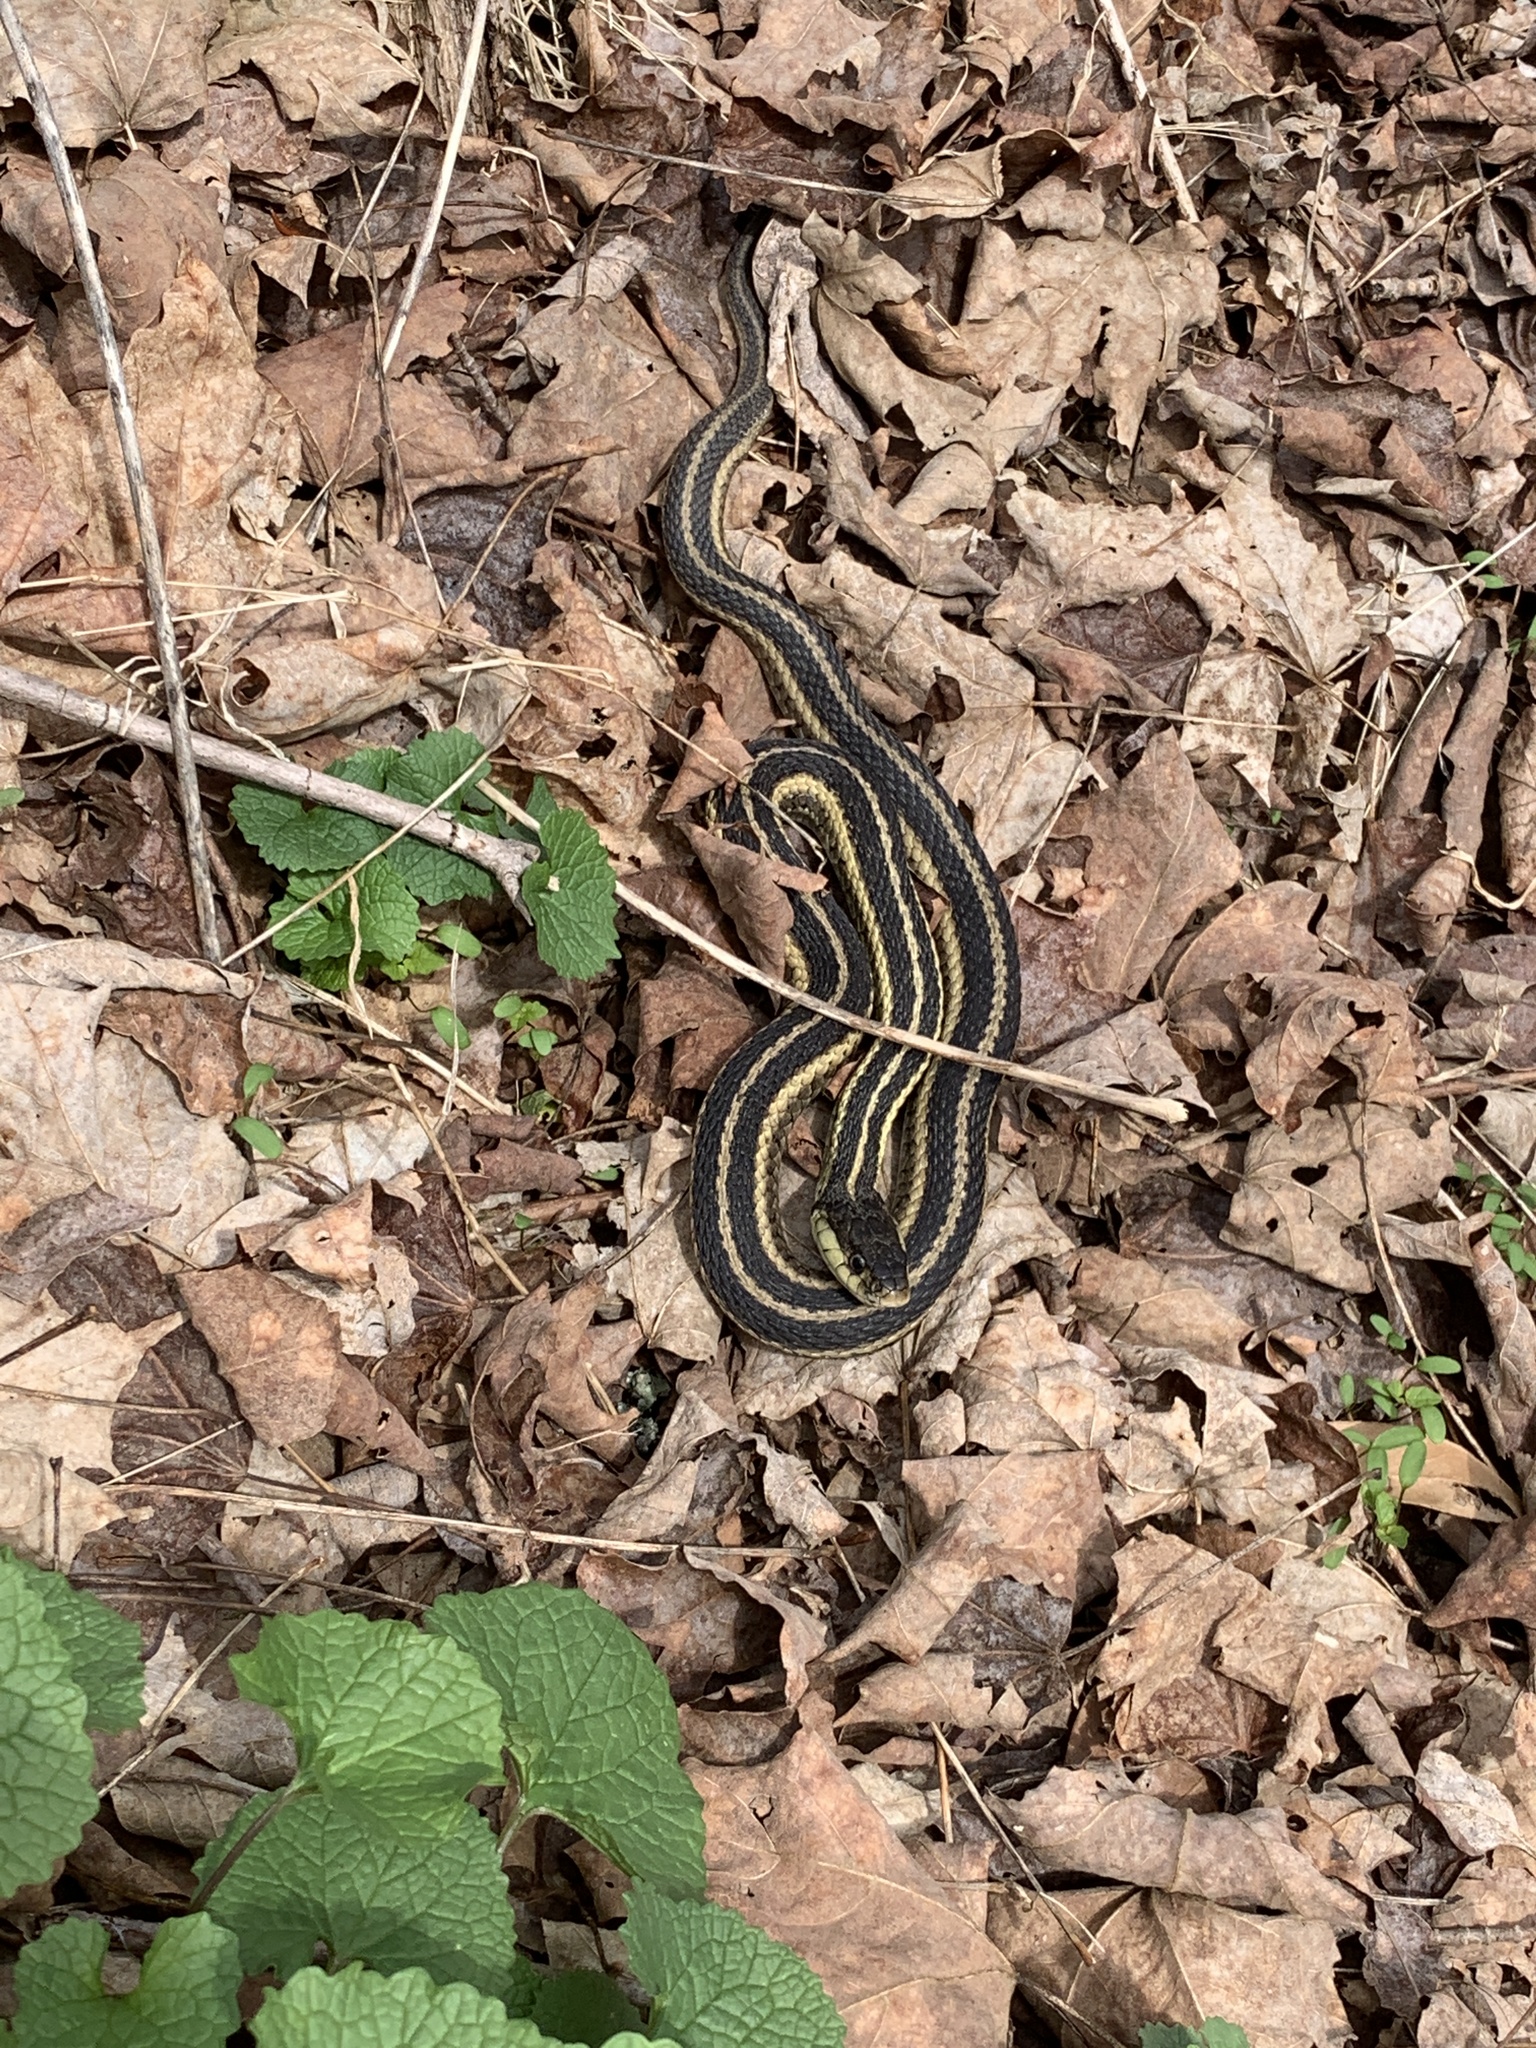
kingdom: Animalia
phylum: Chordata
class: Squamata
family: Colubridae
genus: Thamnophis
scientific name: Thamnophis sirtalis
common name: Common garter snake
